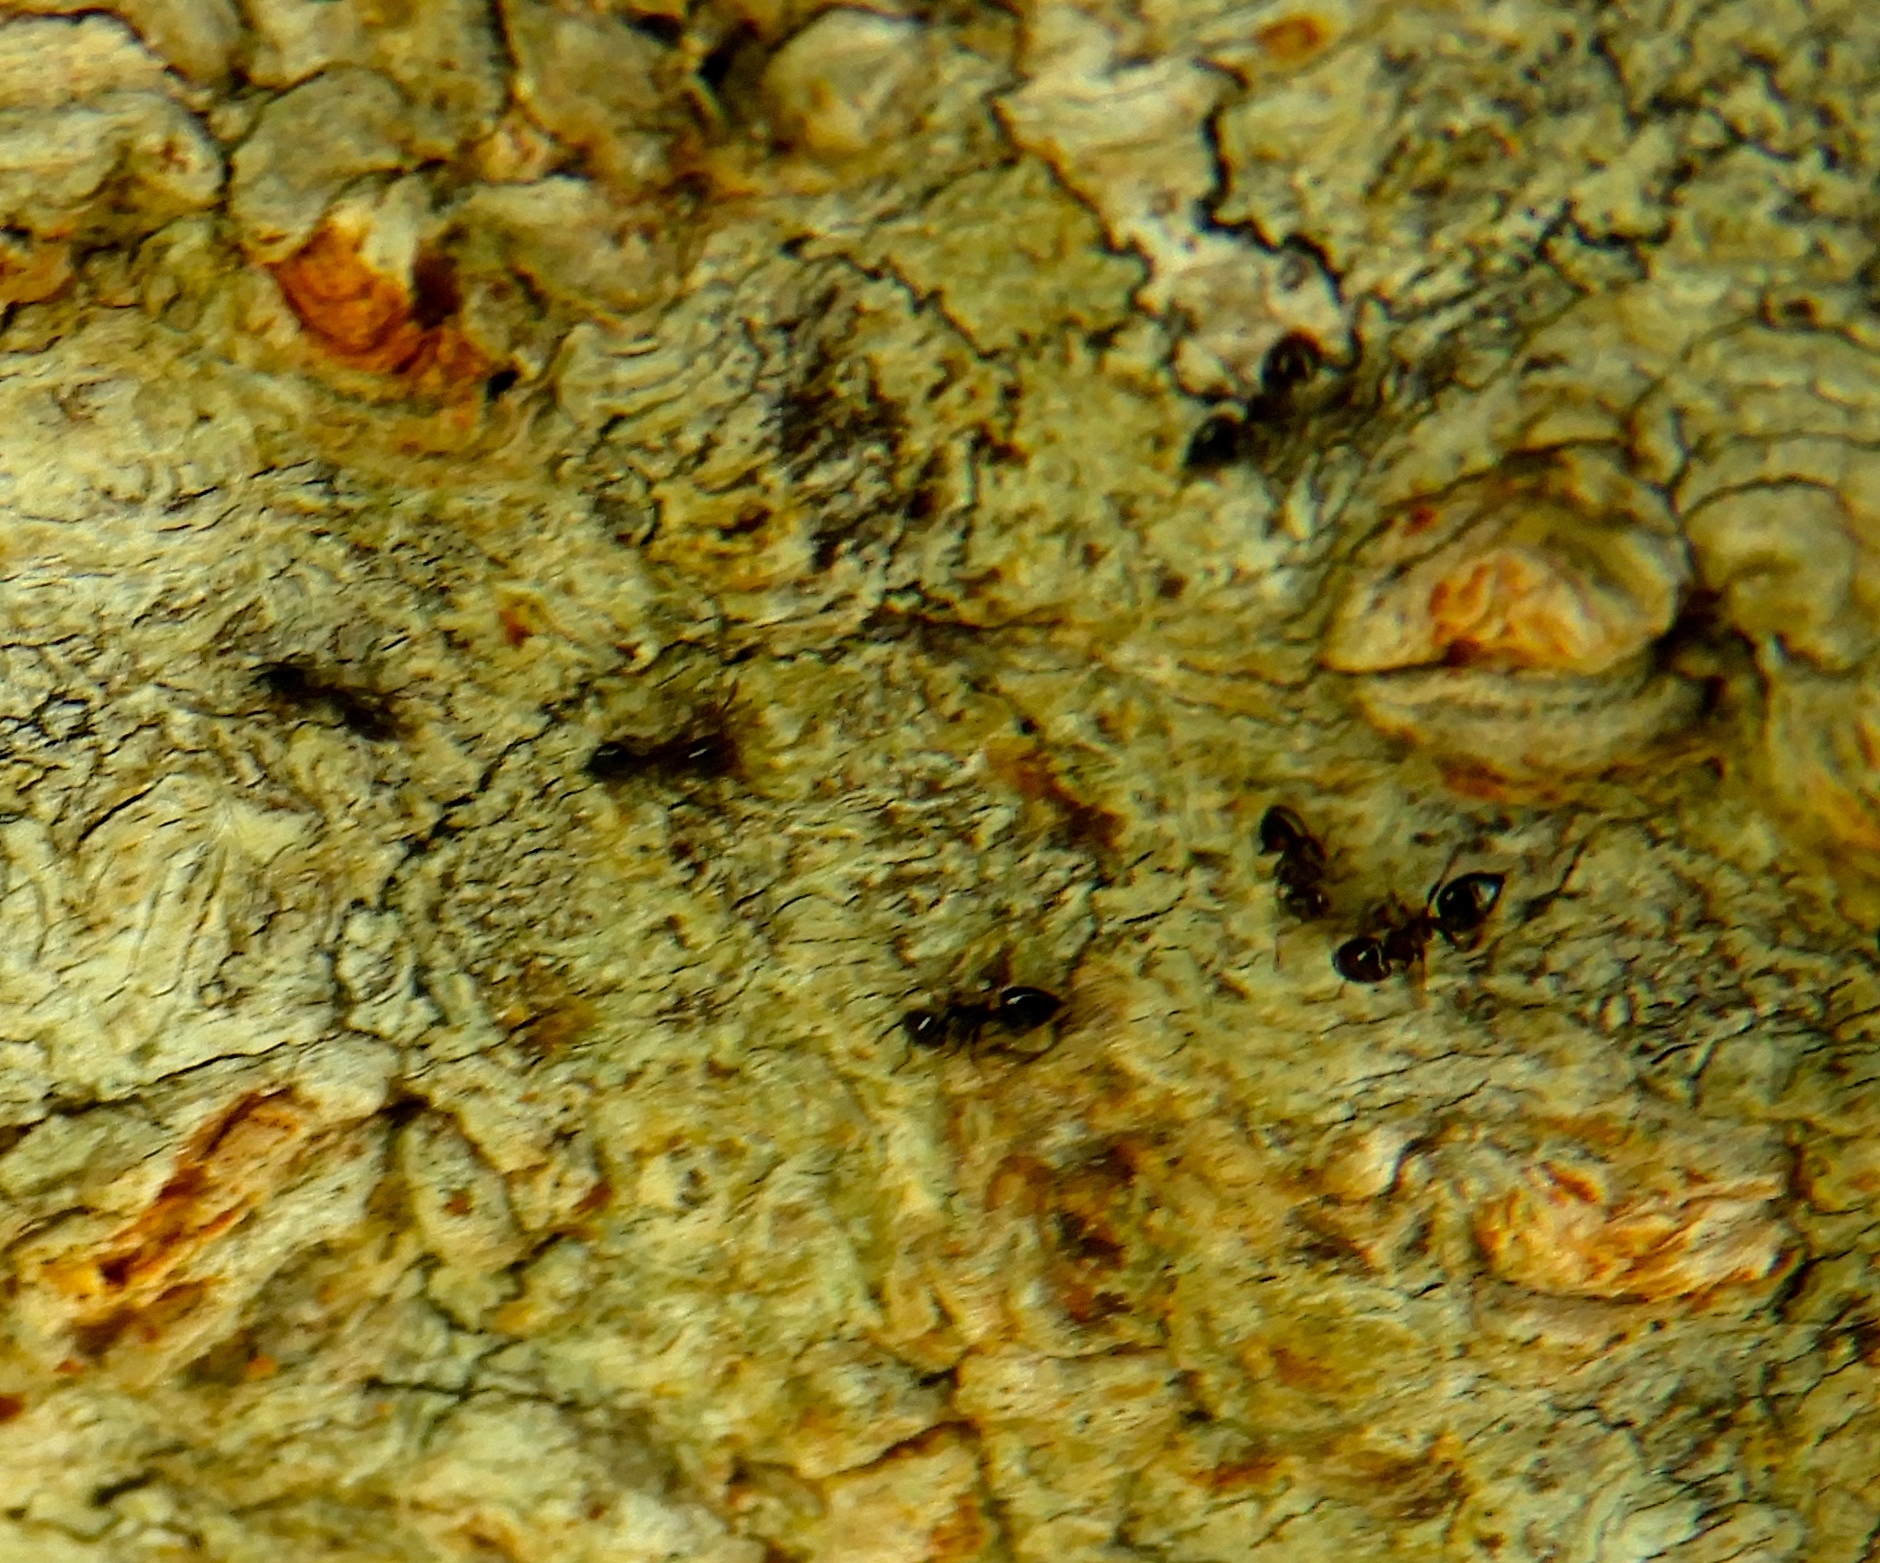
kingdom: Animalia
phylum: Arthropoda
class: Insecta
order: Hymenoptera
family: Formicidae
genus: Crematogaster
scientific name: Crematogaster
